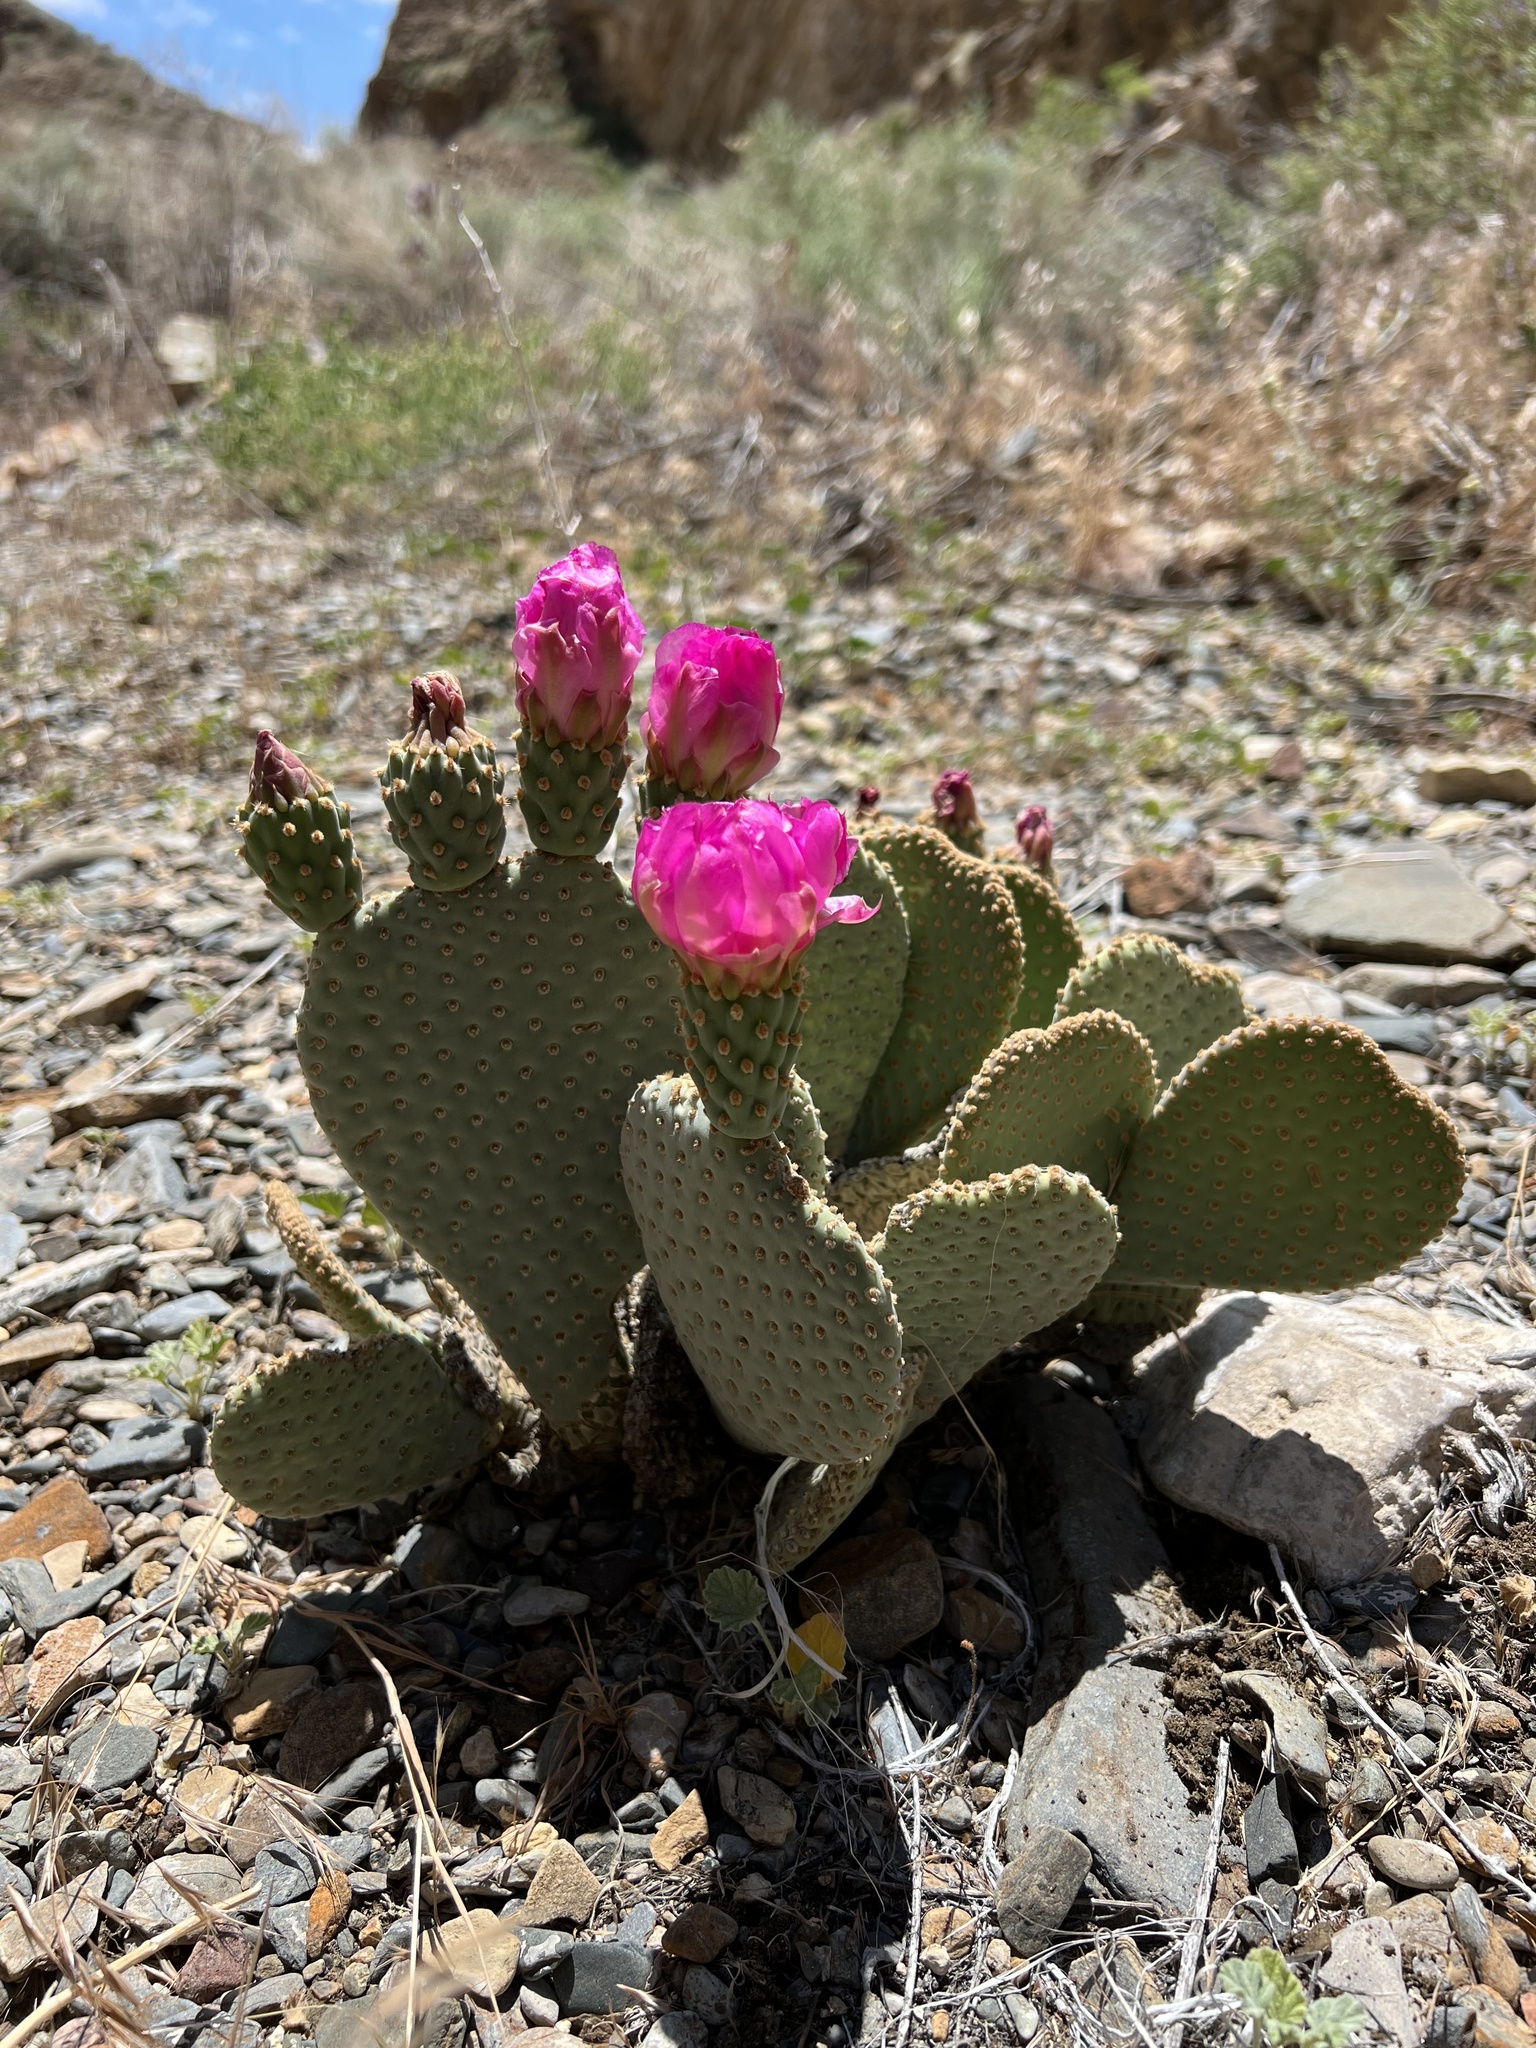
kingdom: Plantae
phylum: Tracheophyta
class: Magnoliopsida
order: Caryophyllales
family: Cactaceae
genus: Opuntia
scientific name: Opuntia basilaris
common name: Beavertail prickly-pear
